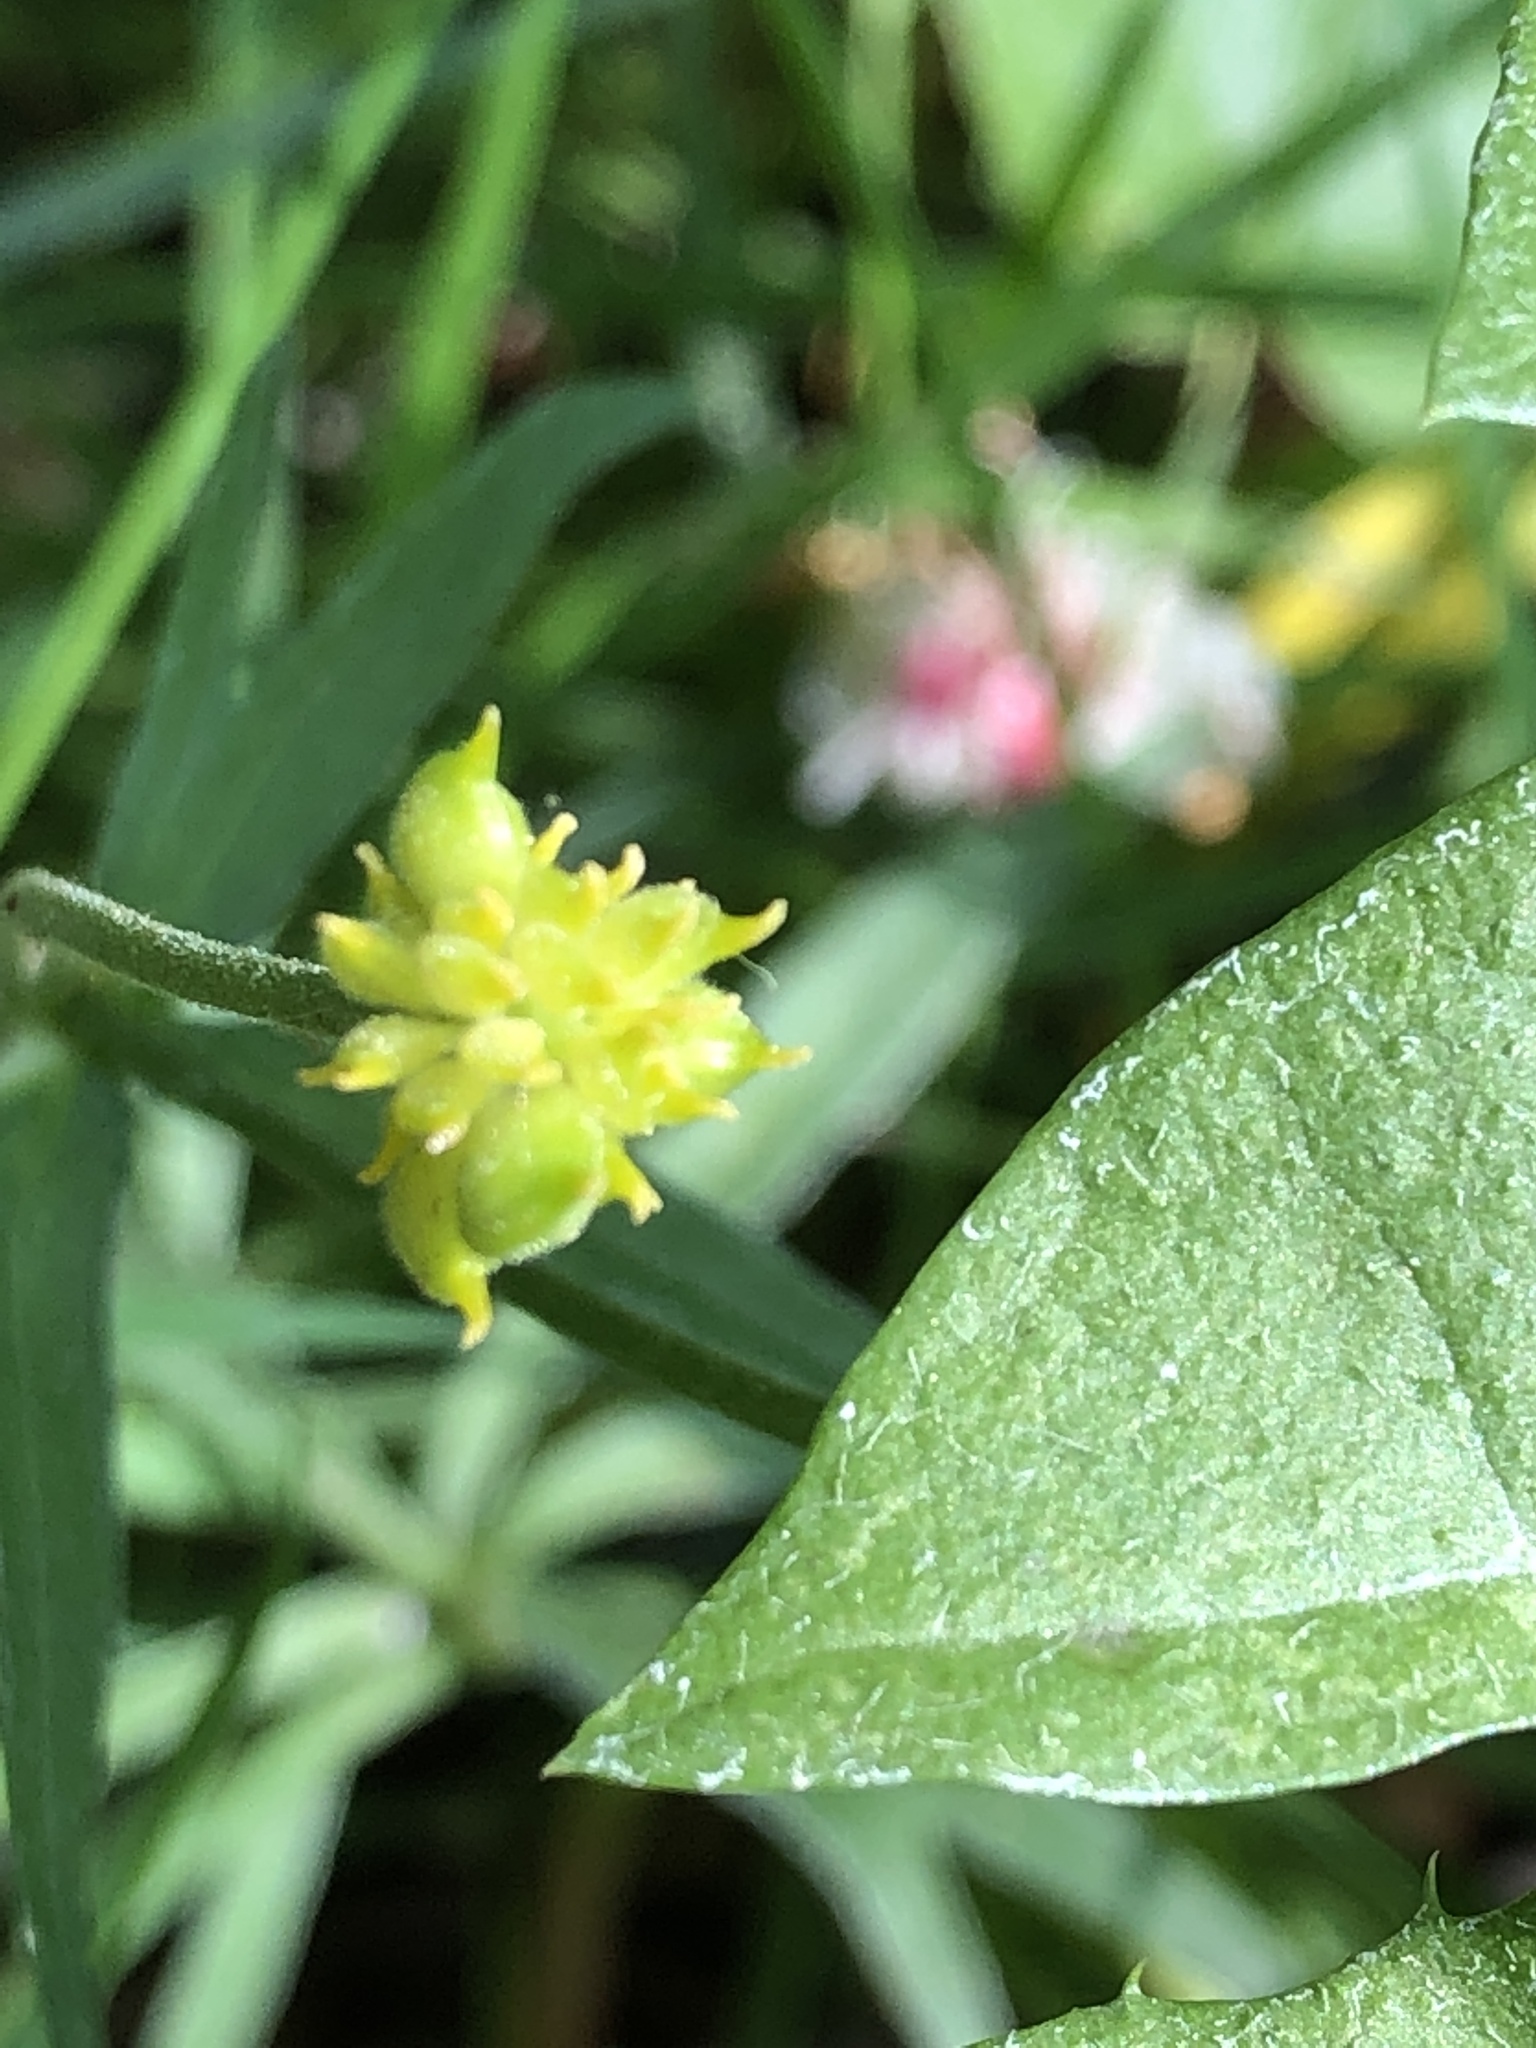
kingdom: Plantae
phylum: Tracheophyta
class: Magnoliopsida
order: Ranunculales
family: Ranunculaceae
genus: Ranunculus
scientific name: Ranunculus auricomus
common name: Goldilocks buttercup
